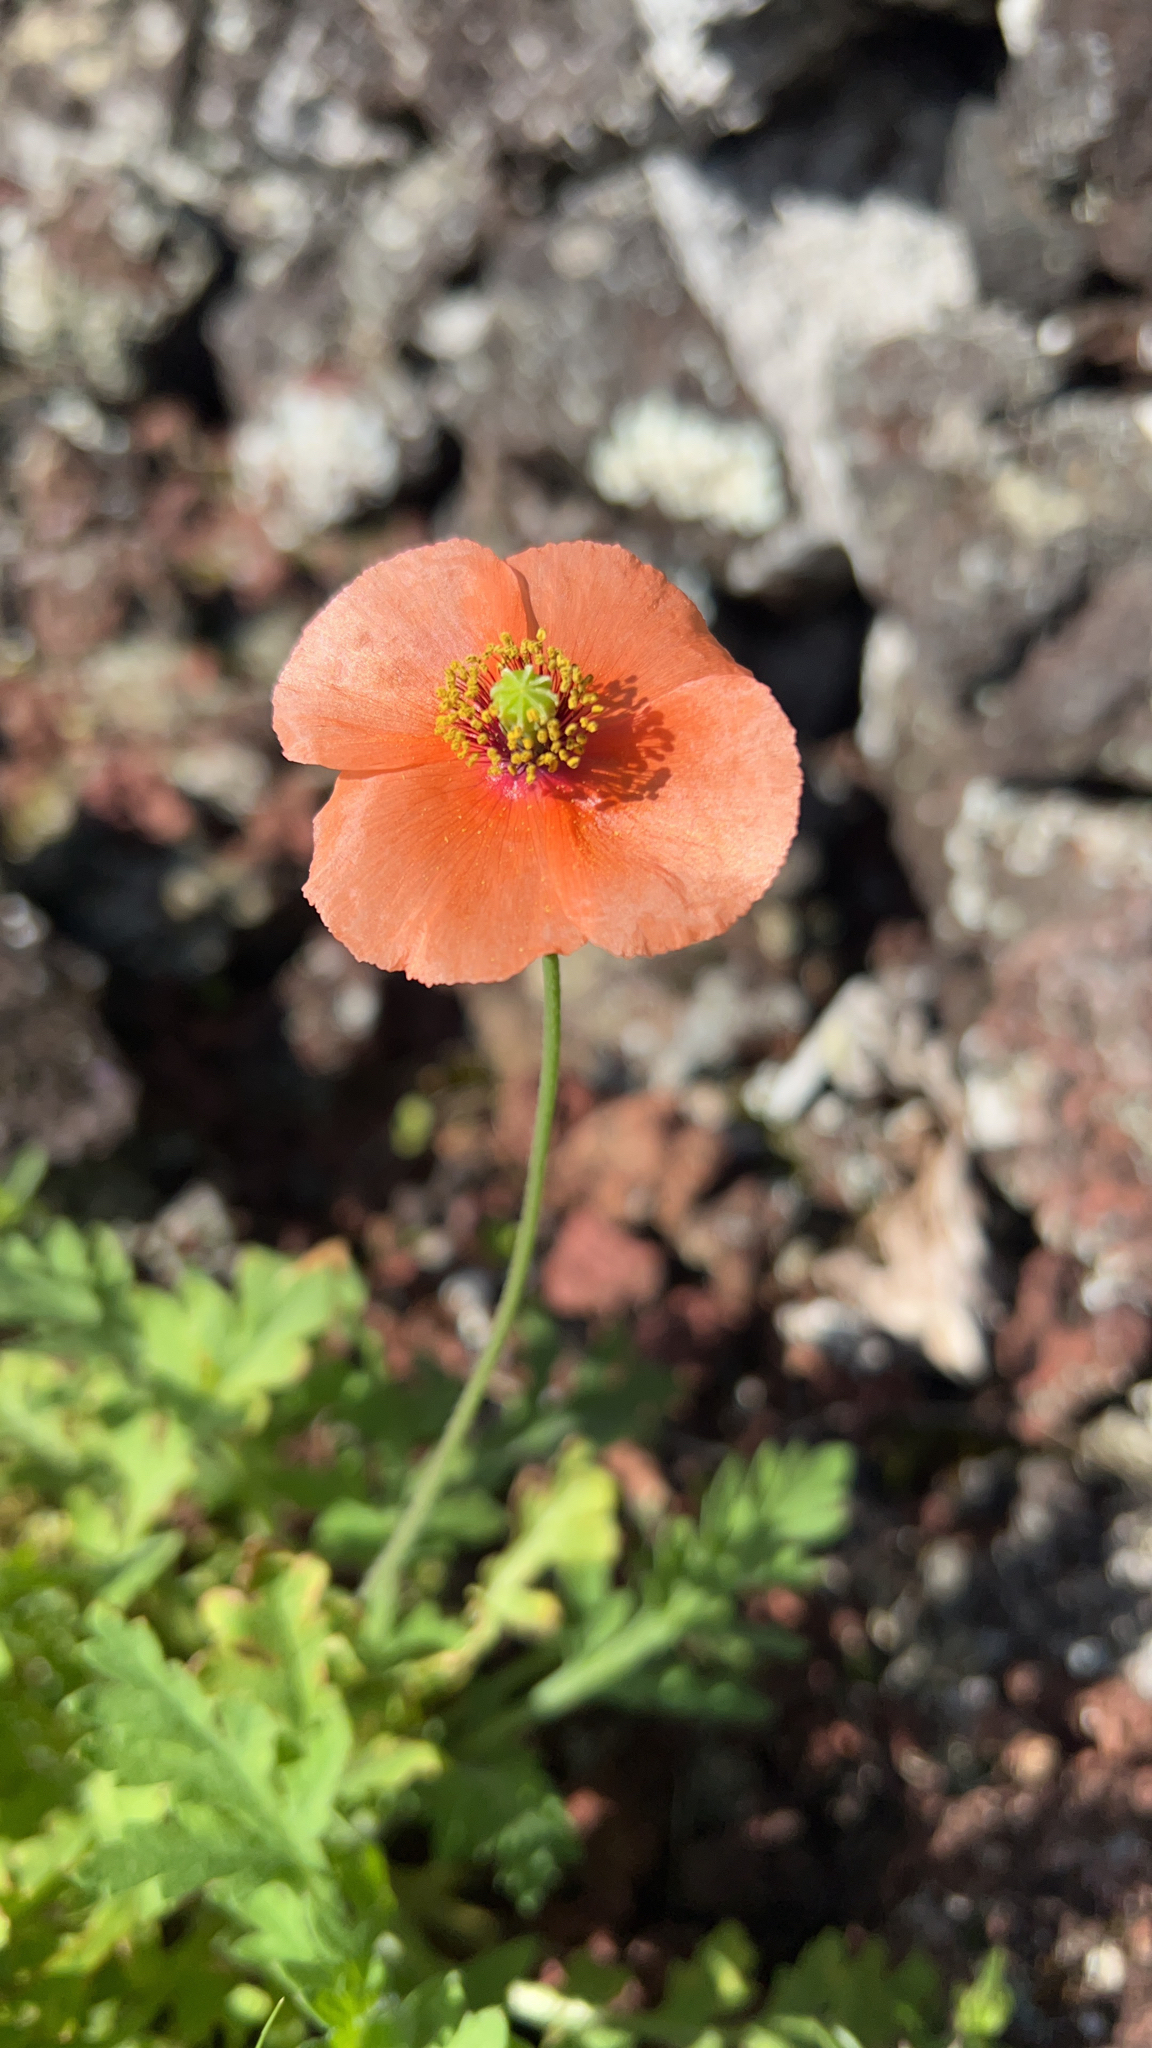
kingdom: Plantae
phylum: Tracheophyta
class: Magnoliopsida
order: Ranunculales
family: Papaveraceae
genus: Papaver
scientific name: Papaver dubium
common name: Long-headed poppy
